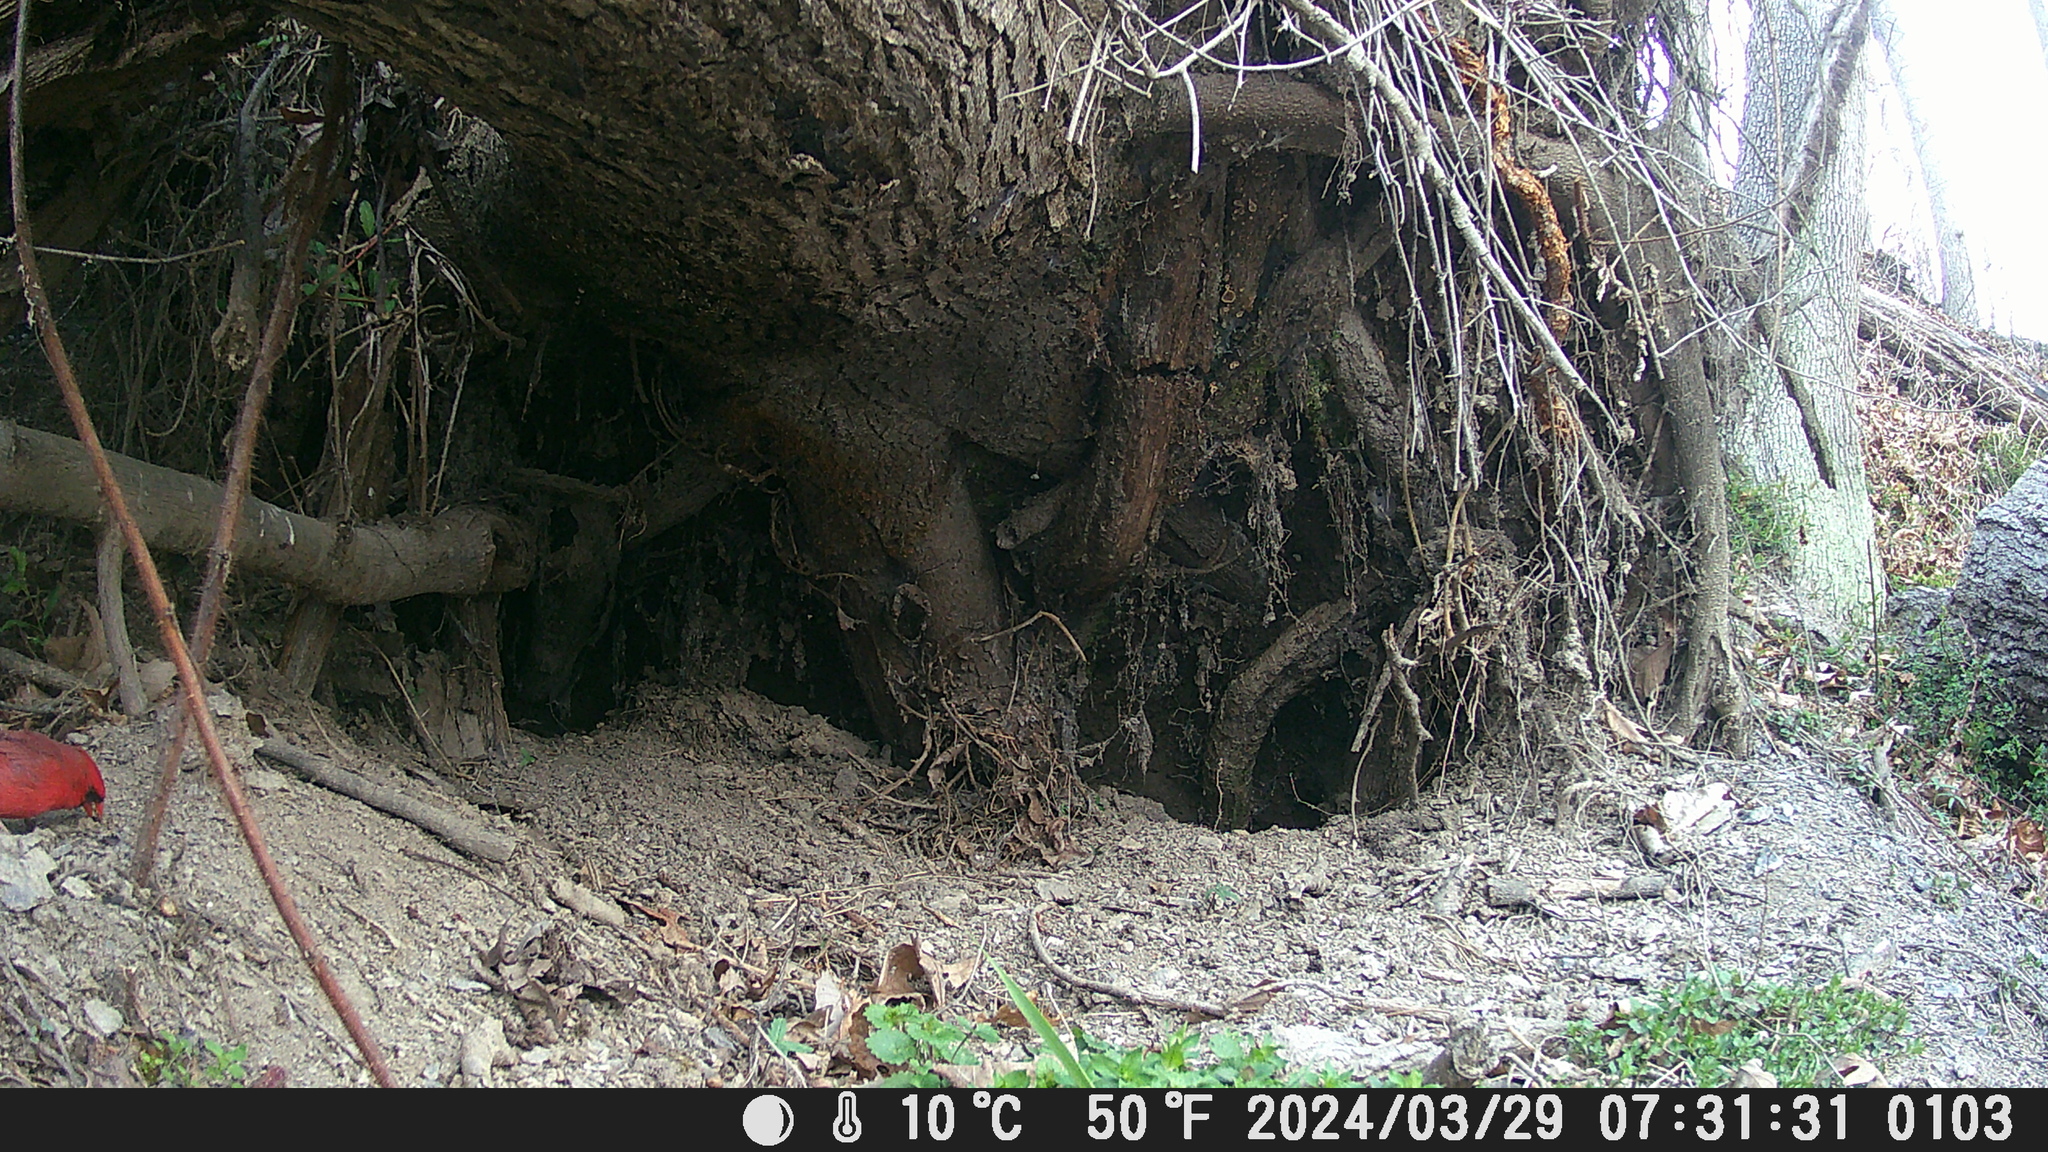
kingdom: Animalia
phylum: Chordata
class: Aves
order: Passeriformes
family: Cardinalidae
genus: Cardinalis
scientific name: Cardinalis cardinalis
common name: Northern cardinal
